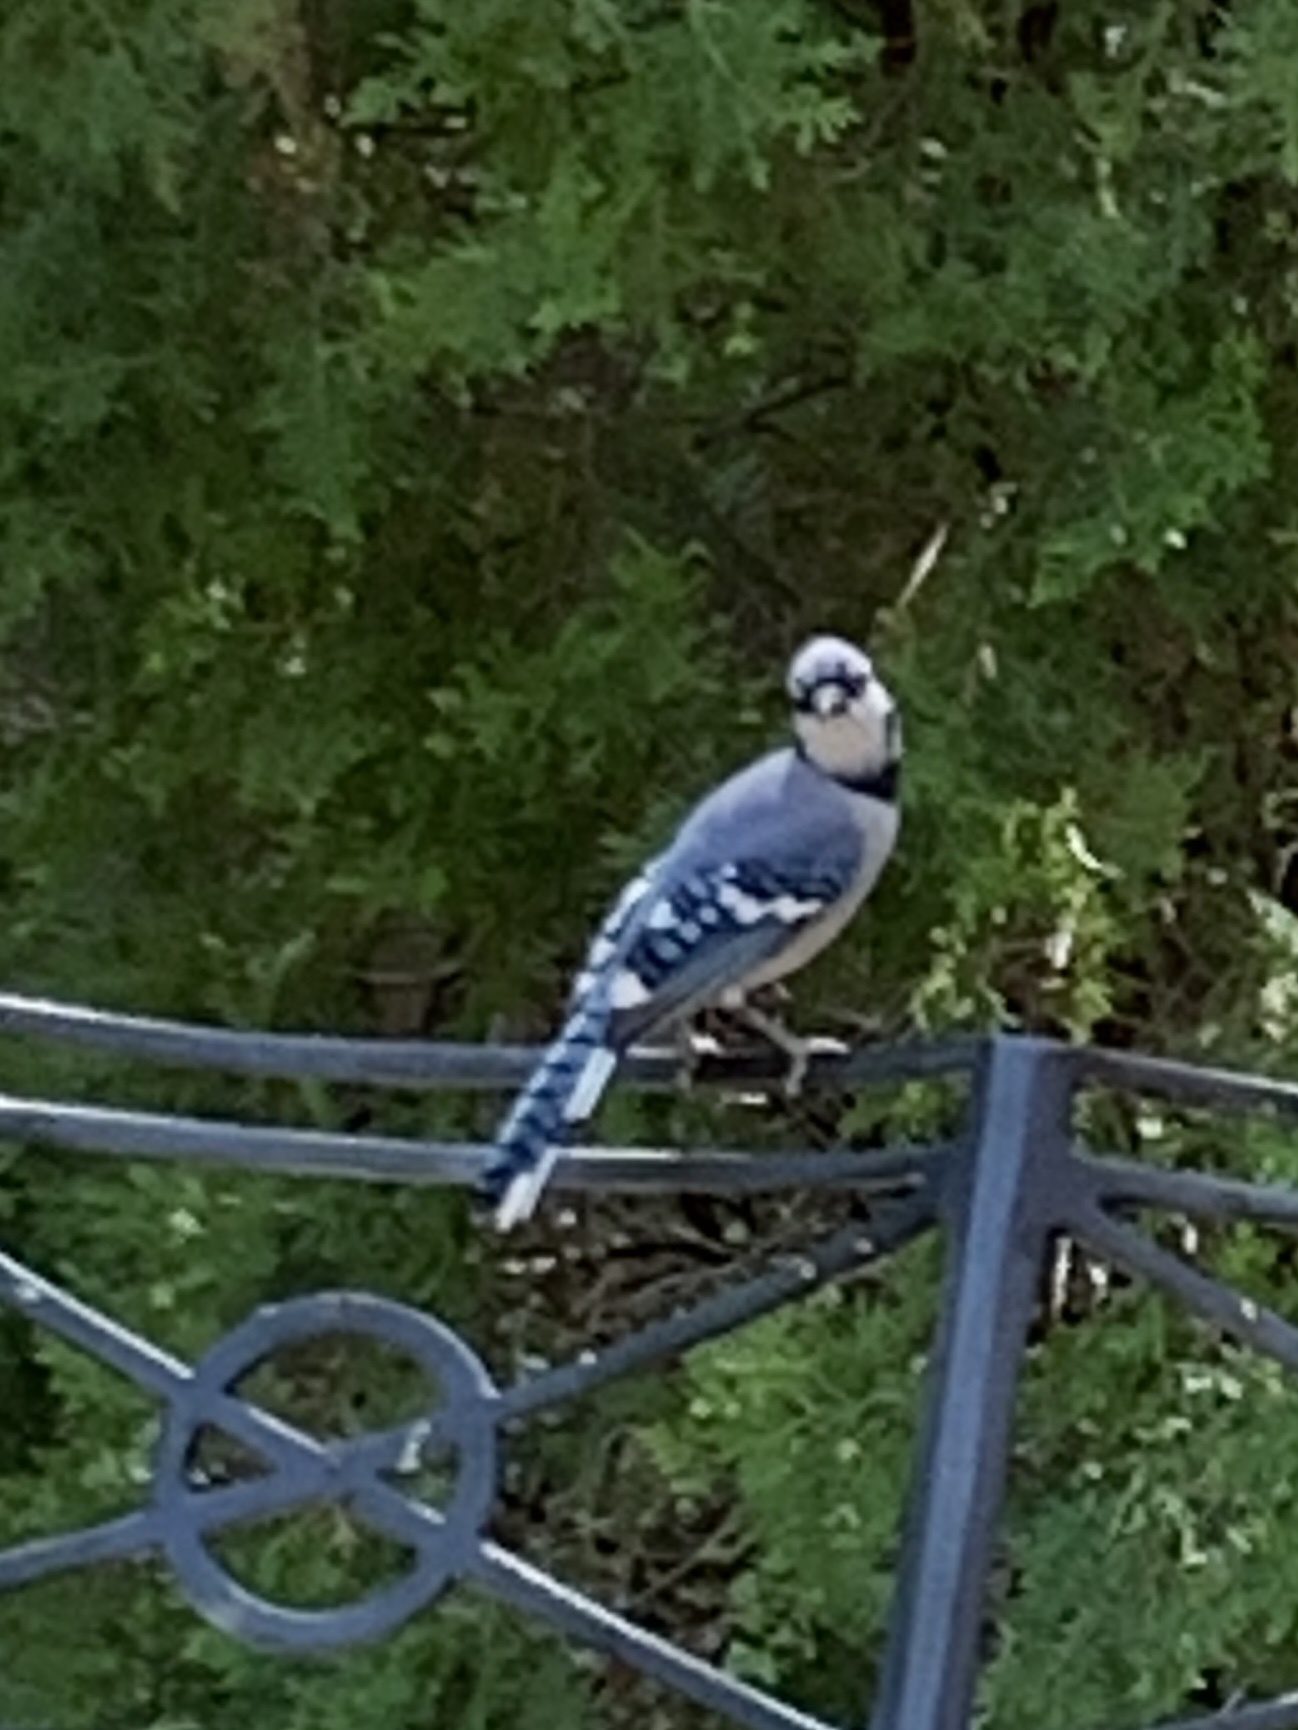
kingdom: Animalia
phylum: Chordata
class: Aves
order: Passeriformes
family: Corvidae
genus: Cyanocitta
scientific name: Cyanocitta cristata
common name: Blue jay
